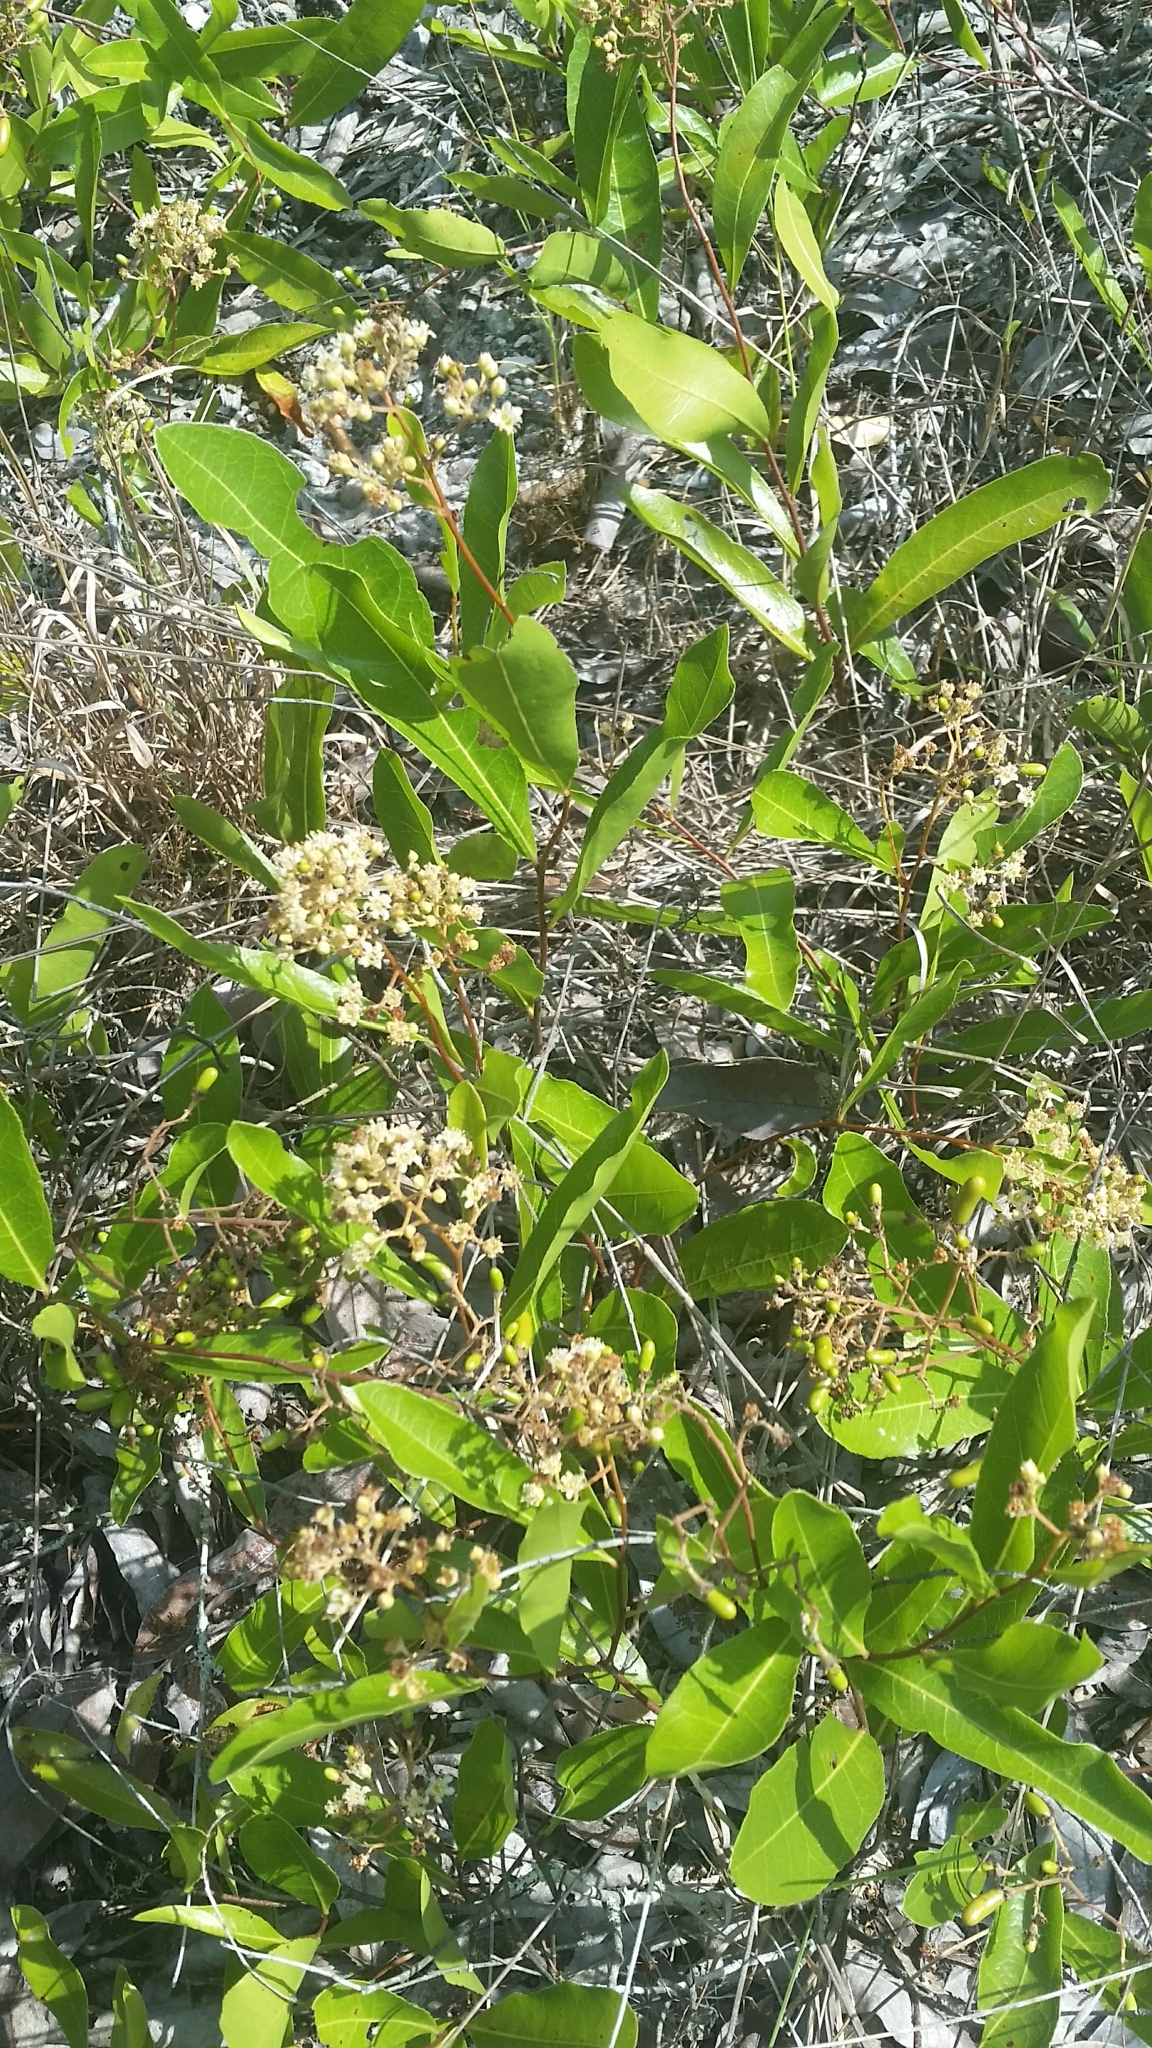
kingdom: Plantae
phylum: Tracheophyta
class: Magnoliopsida
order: Malpighiales
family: Chrysobalanaceae
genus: Geobalanus
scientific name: Geobalanus oblongifolius
